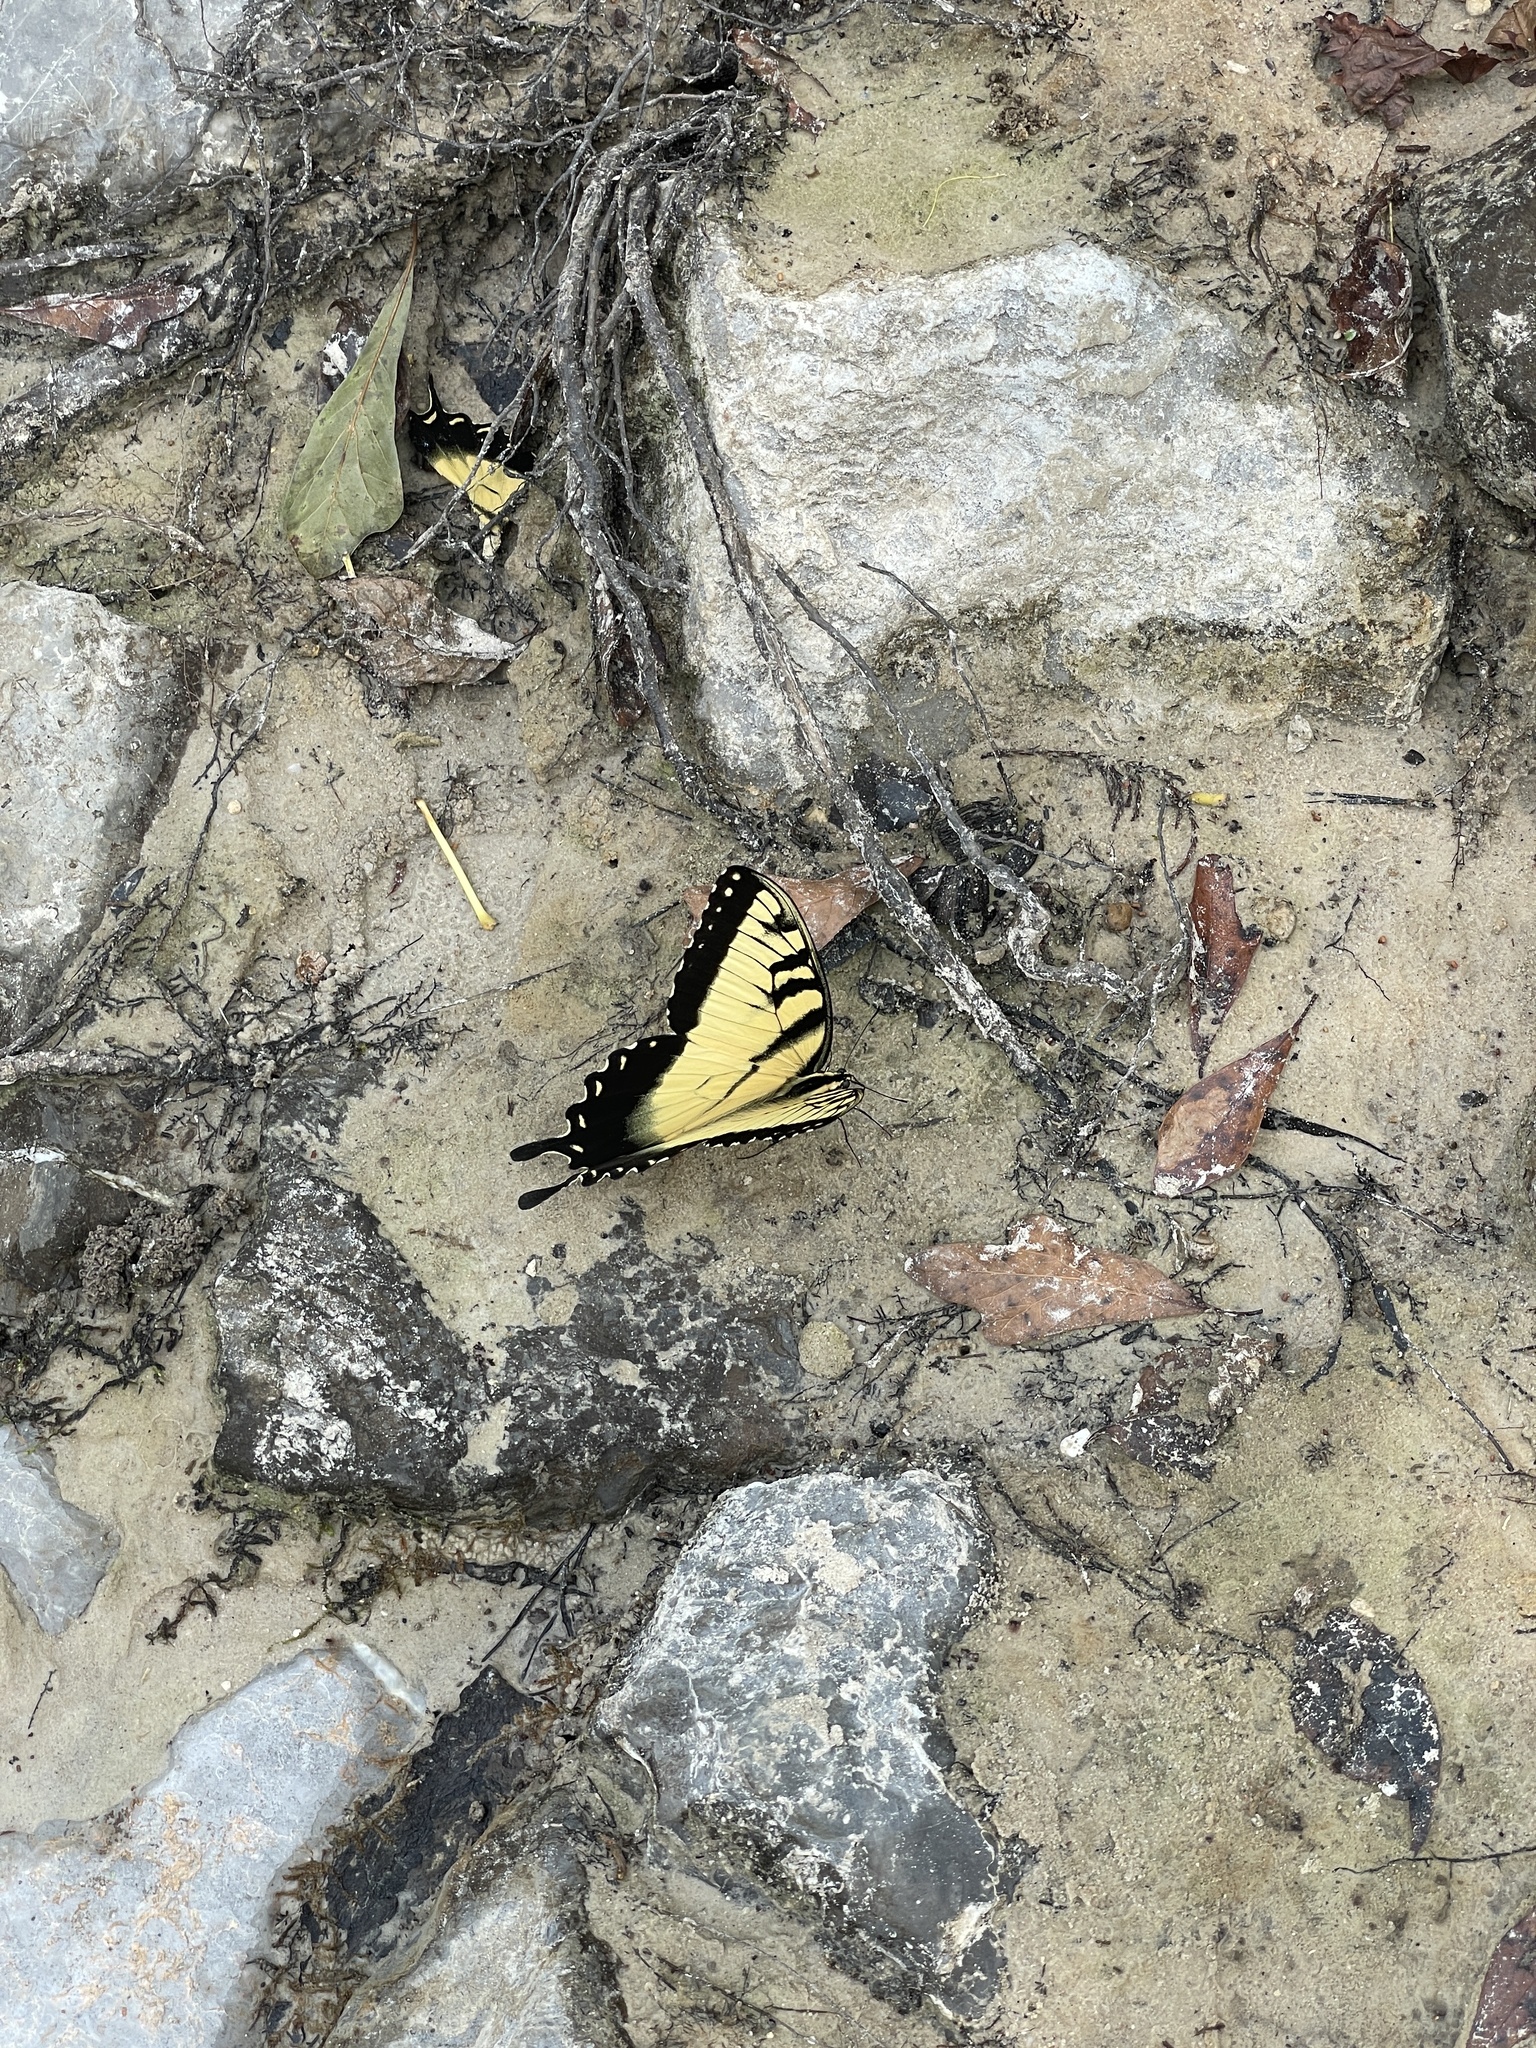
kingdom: Animalia
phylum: Arthropoda
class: Insecta
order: Lepidoptera
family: Papilionidae
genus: Papilio
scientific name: Papilio glaucus
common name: Tiger swallowtail
